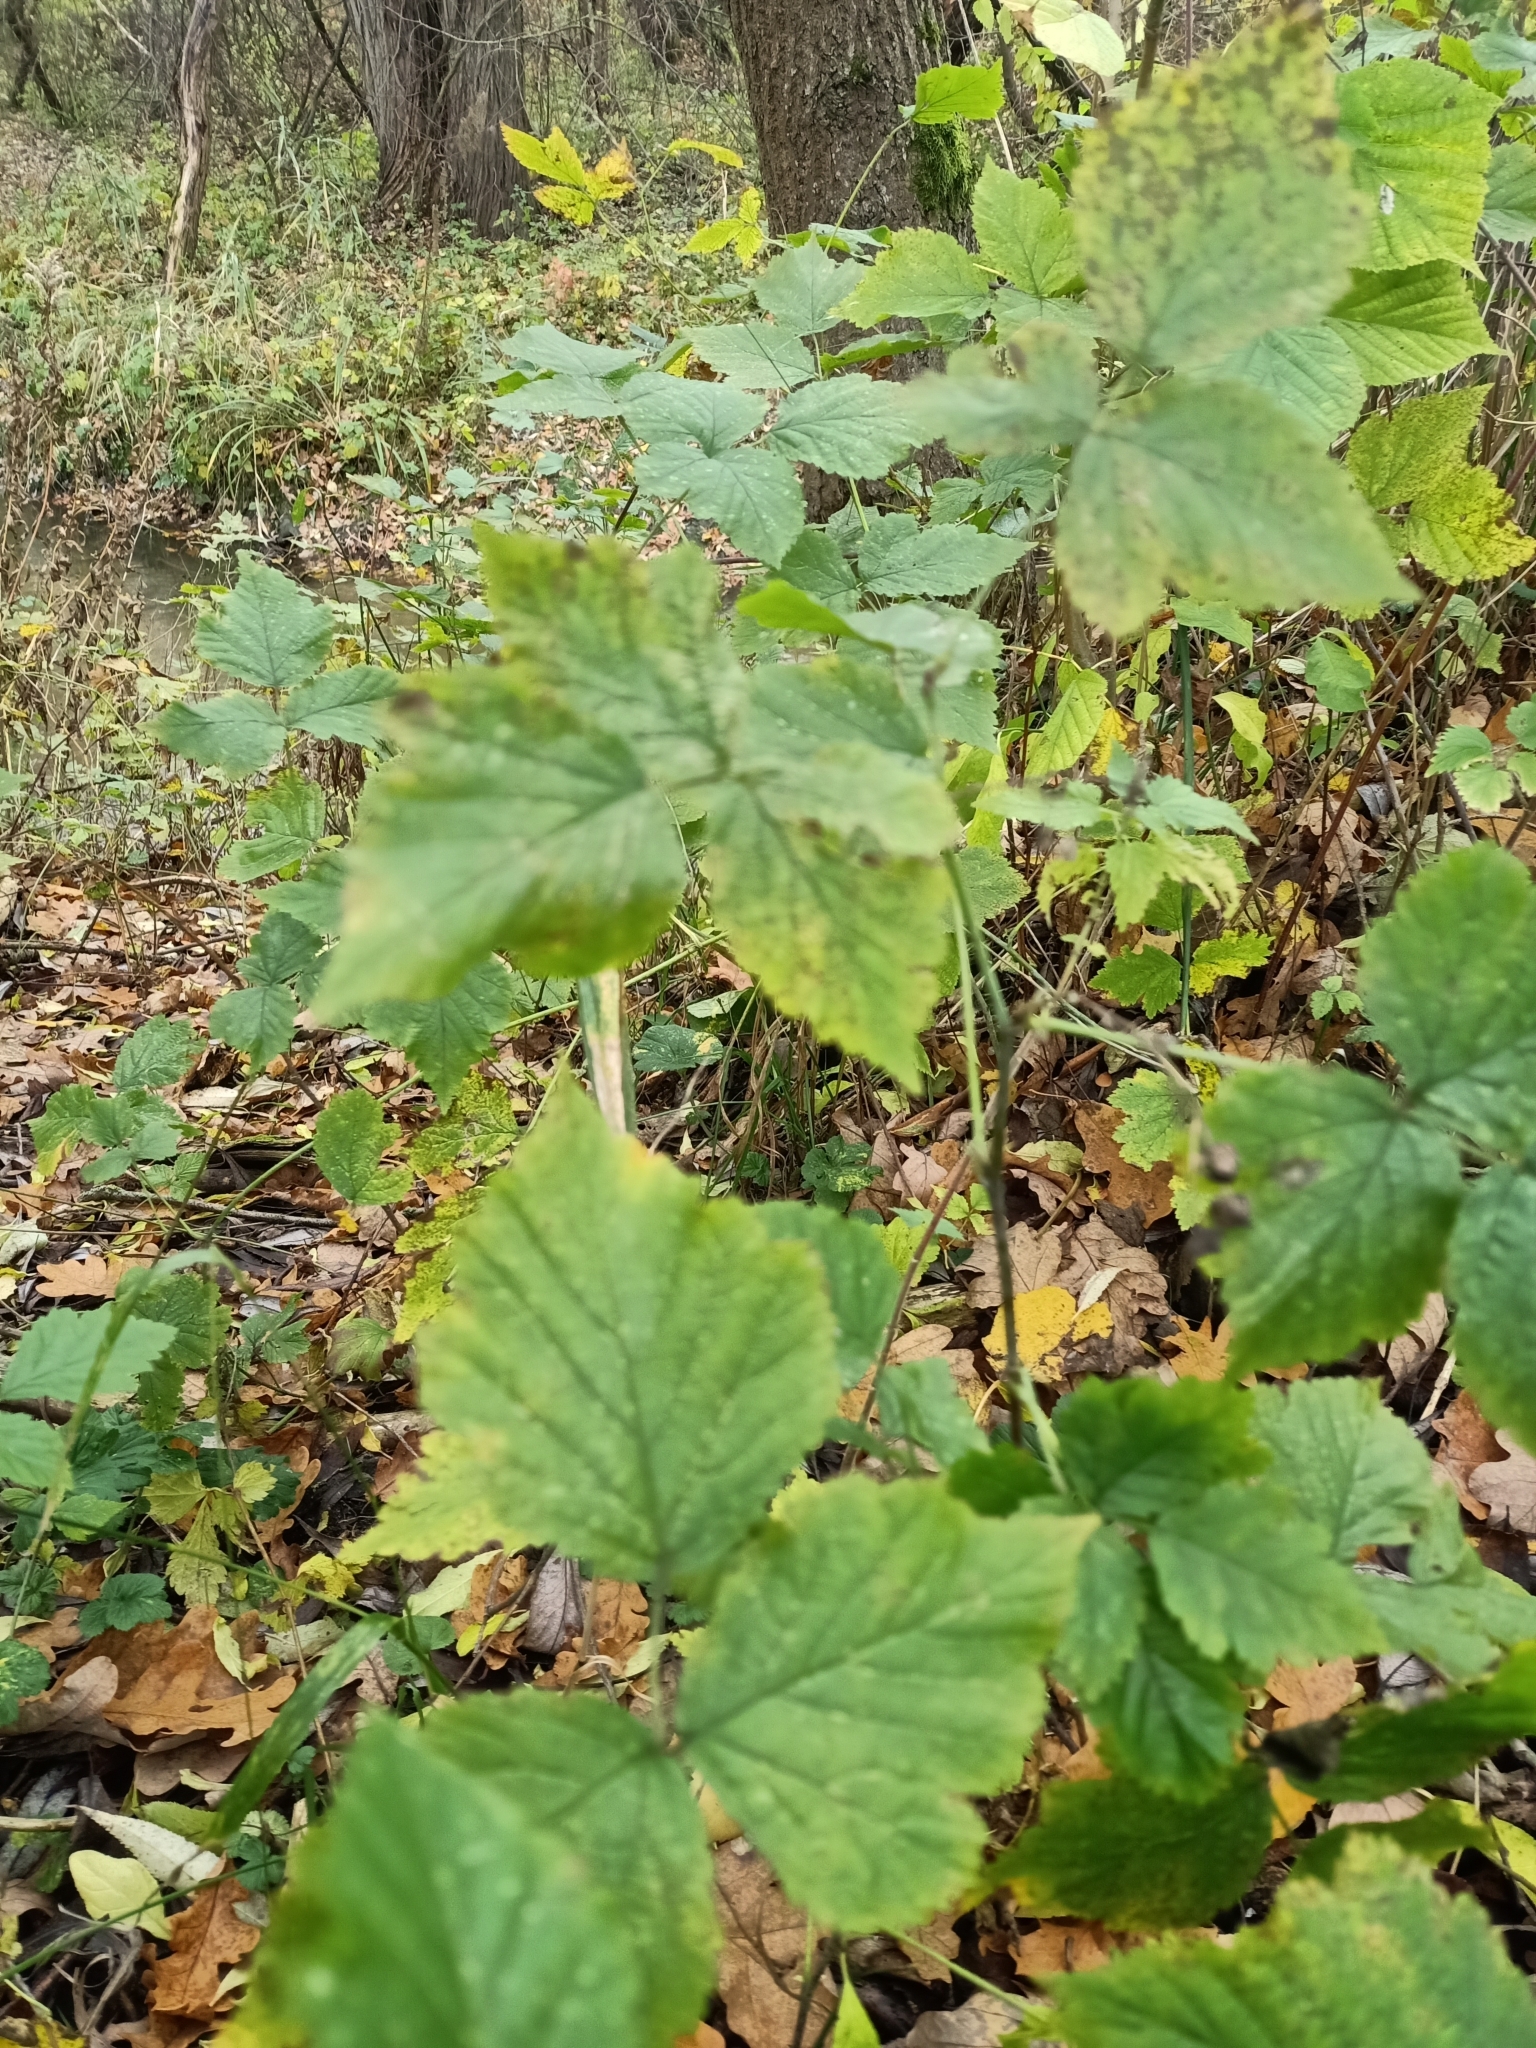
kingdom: Plantae
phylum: Tracheophyta
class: Magnoliopsida
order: Rosales
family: Rosaceae
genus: Rubus
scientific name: Rubus caesius
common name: Dewberry
